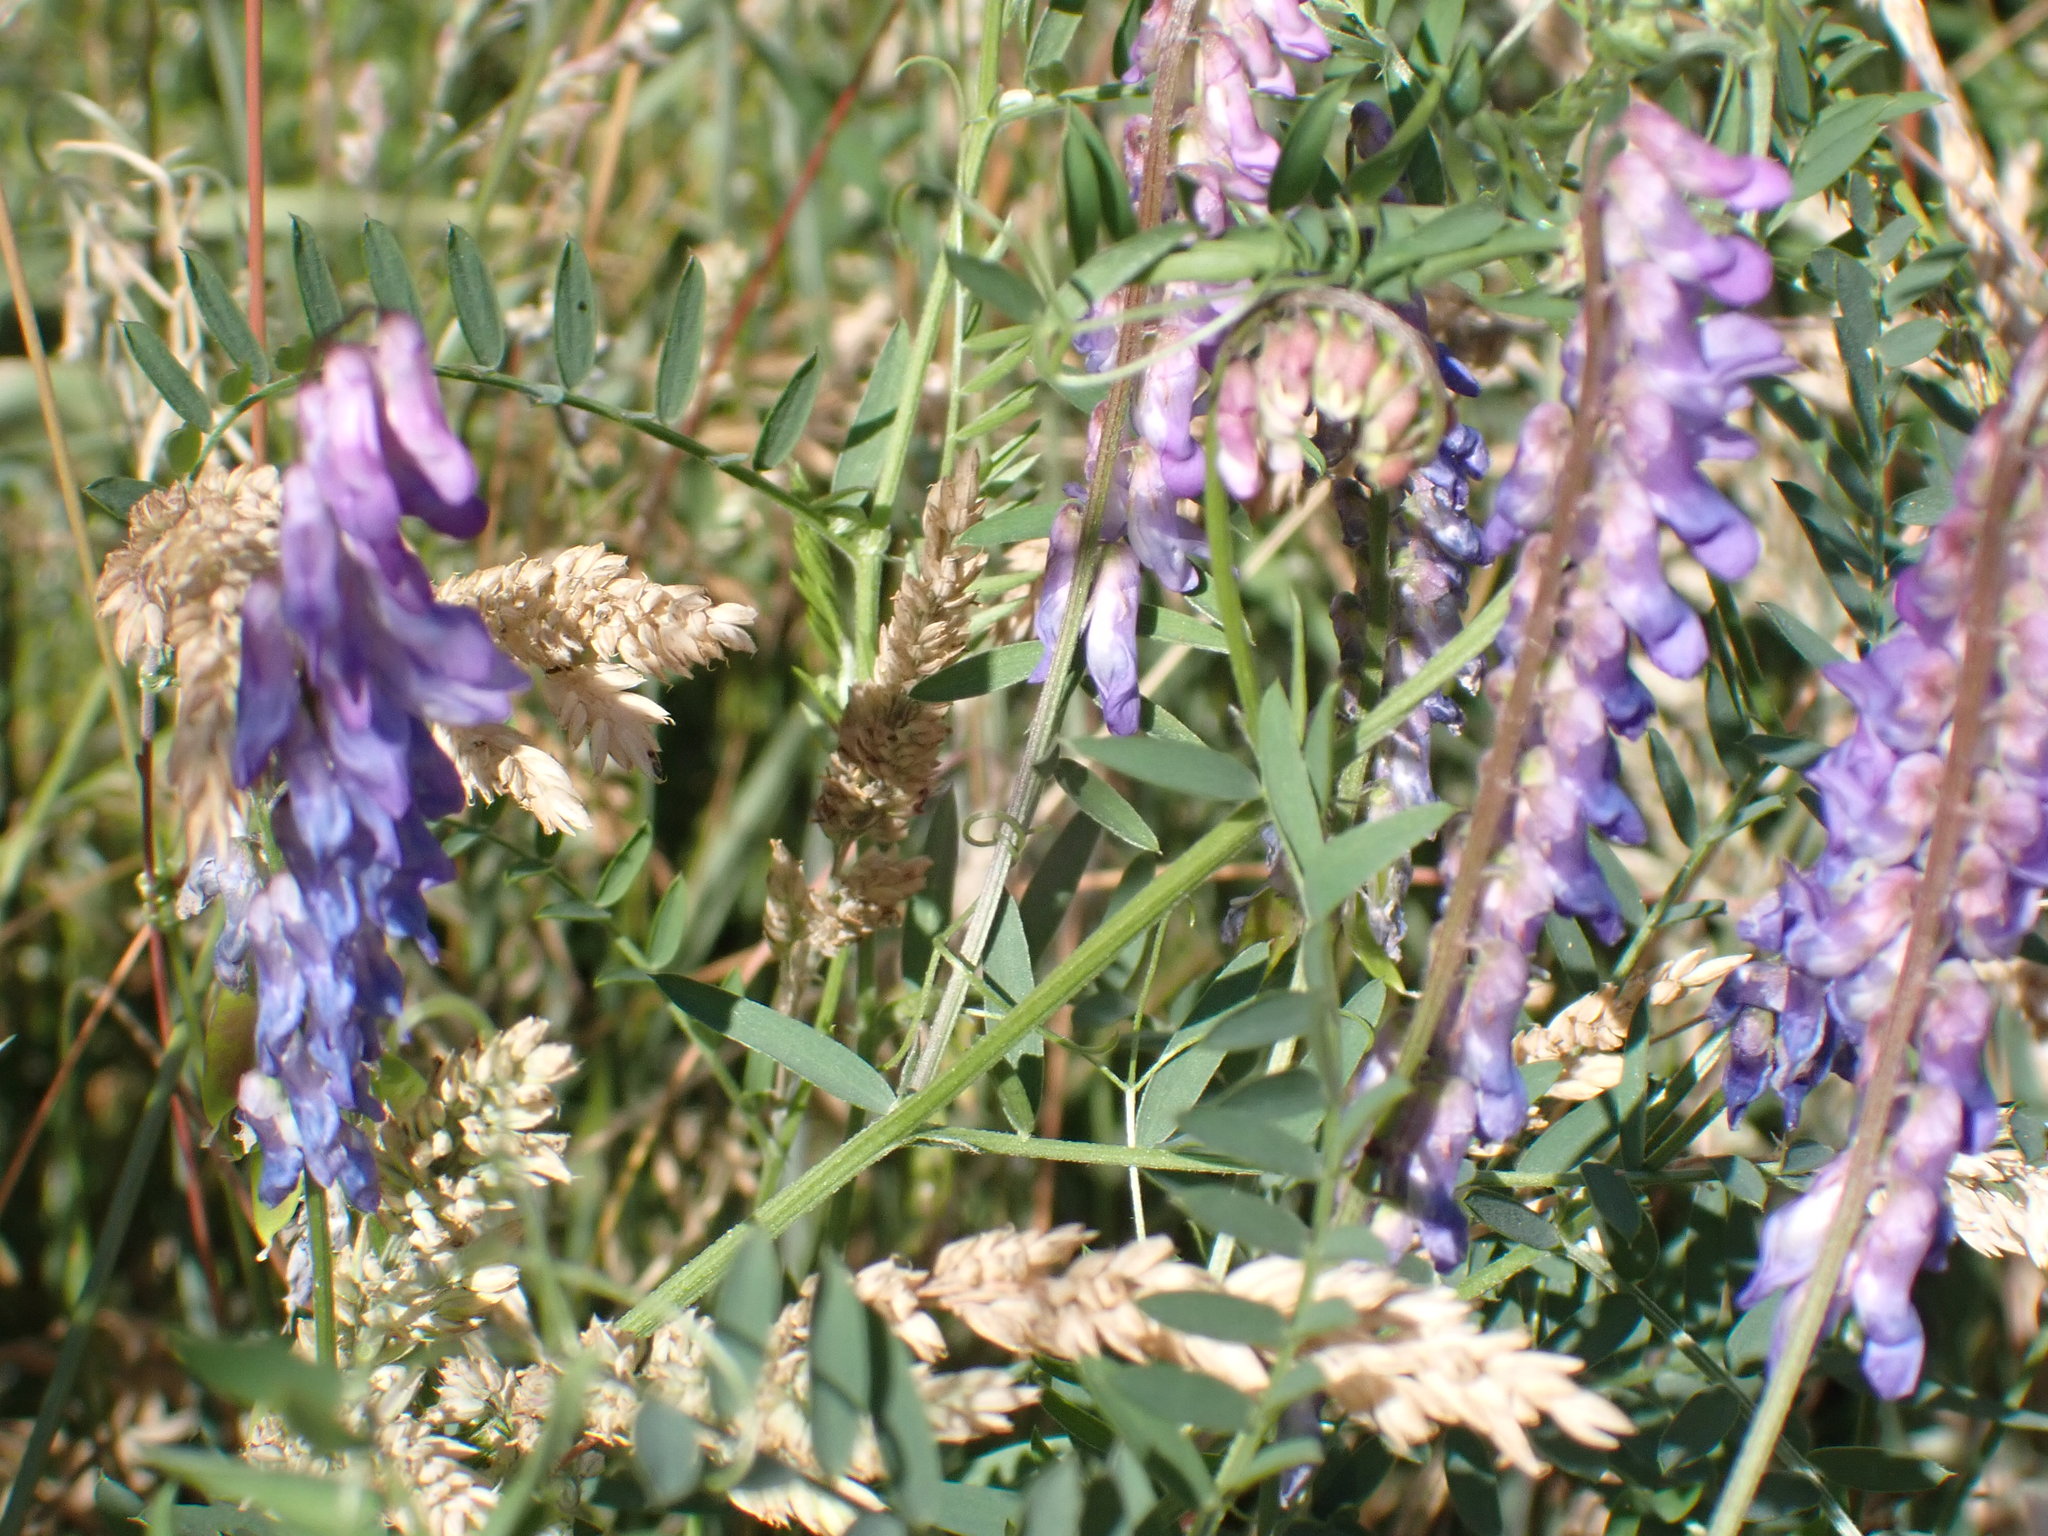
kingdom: Plantae
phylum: Tracheophyta
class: Magnoliopsida
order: Fabales
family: Fabaceae
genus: Vicia
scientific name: Vicia cracca
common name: Bird vetch
